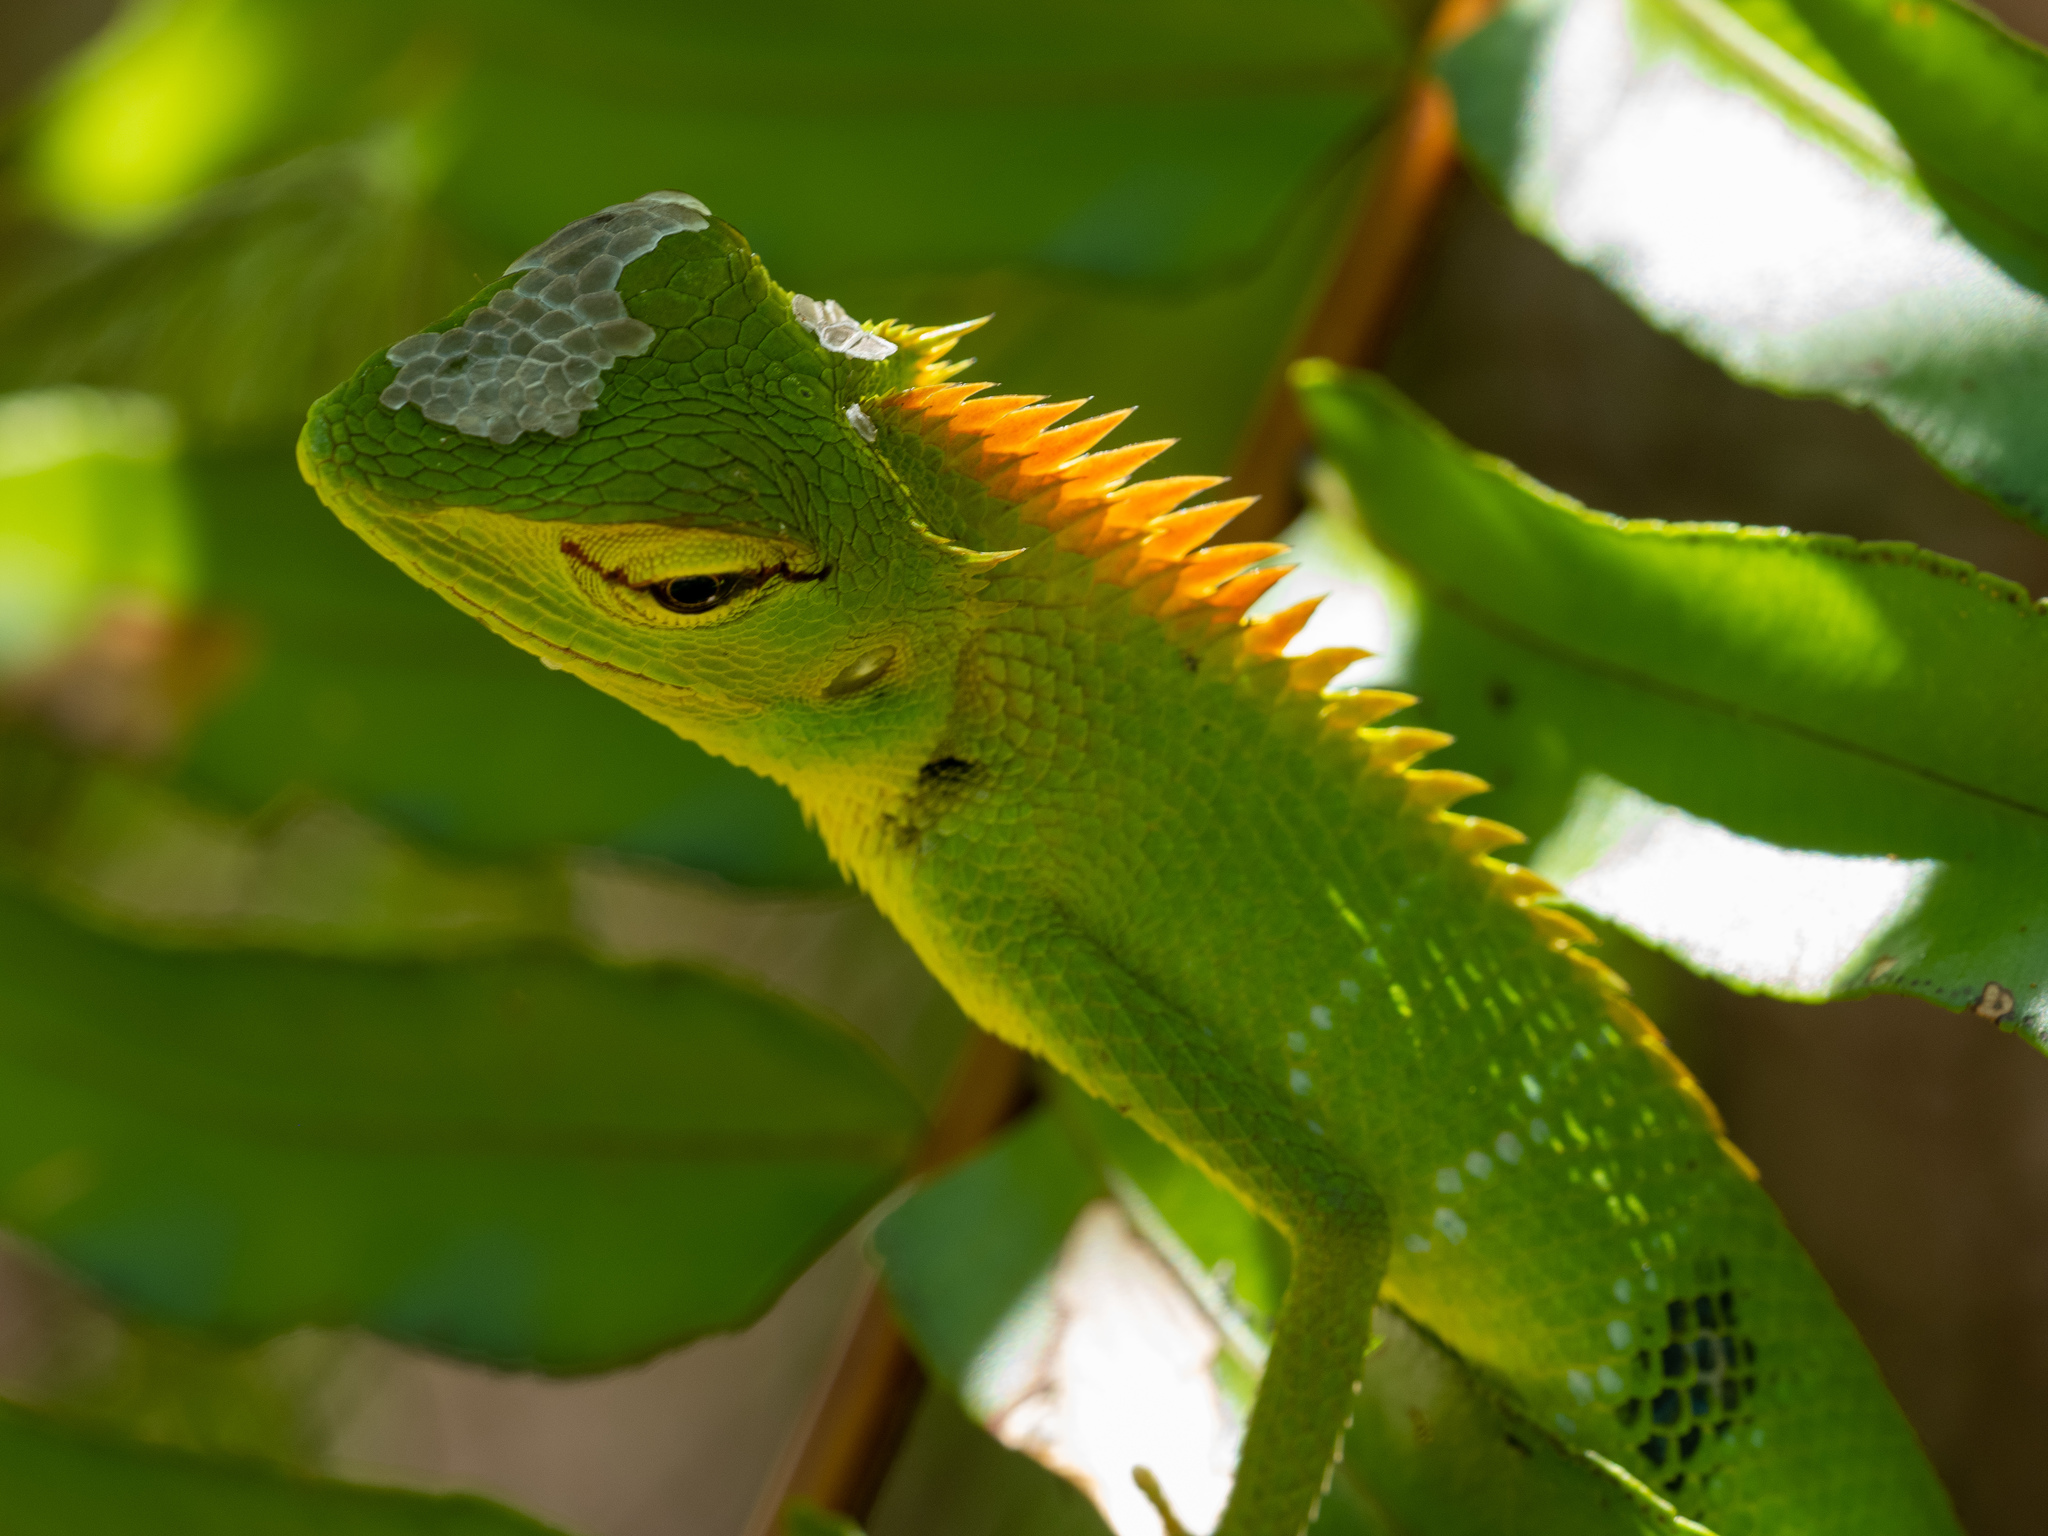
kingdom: Animalia
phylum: Chordata
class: Squamata
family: Agamidae
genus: Calotes
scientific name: Calotes calotes
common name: Common green forest lizard
